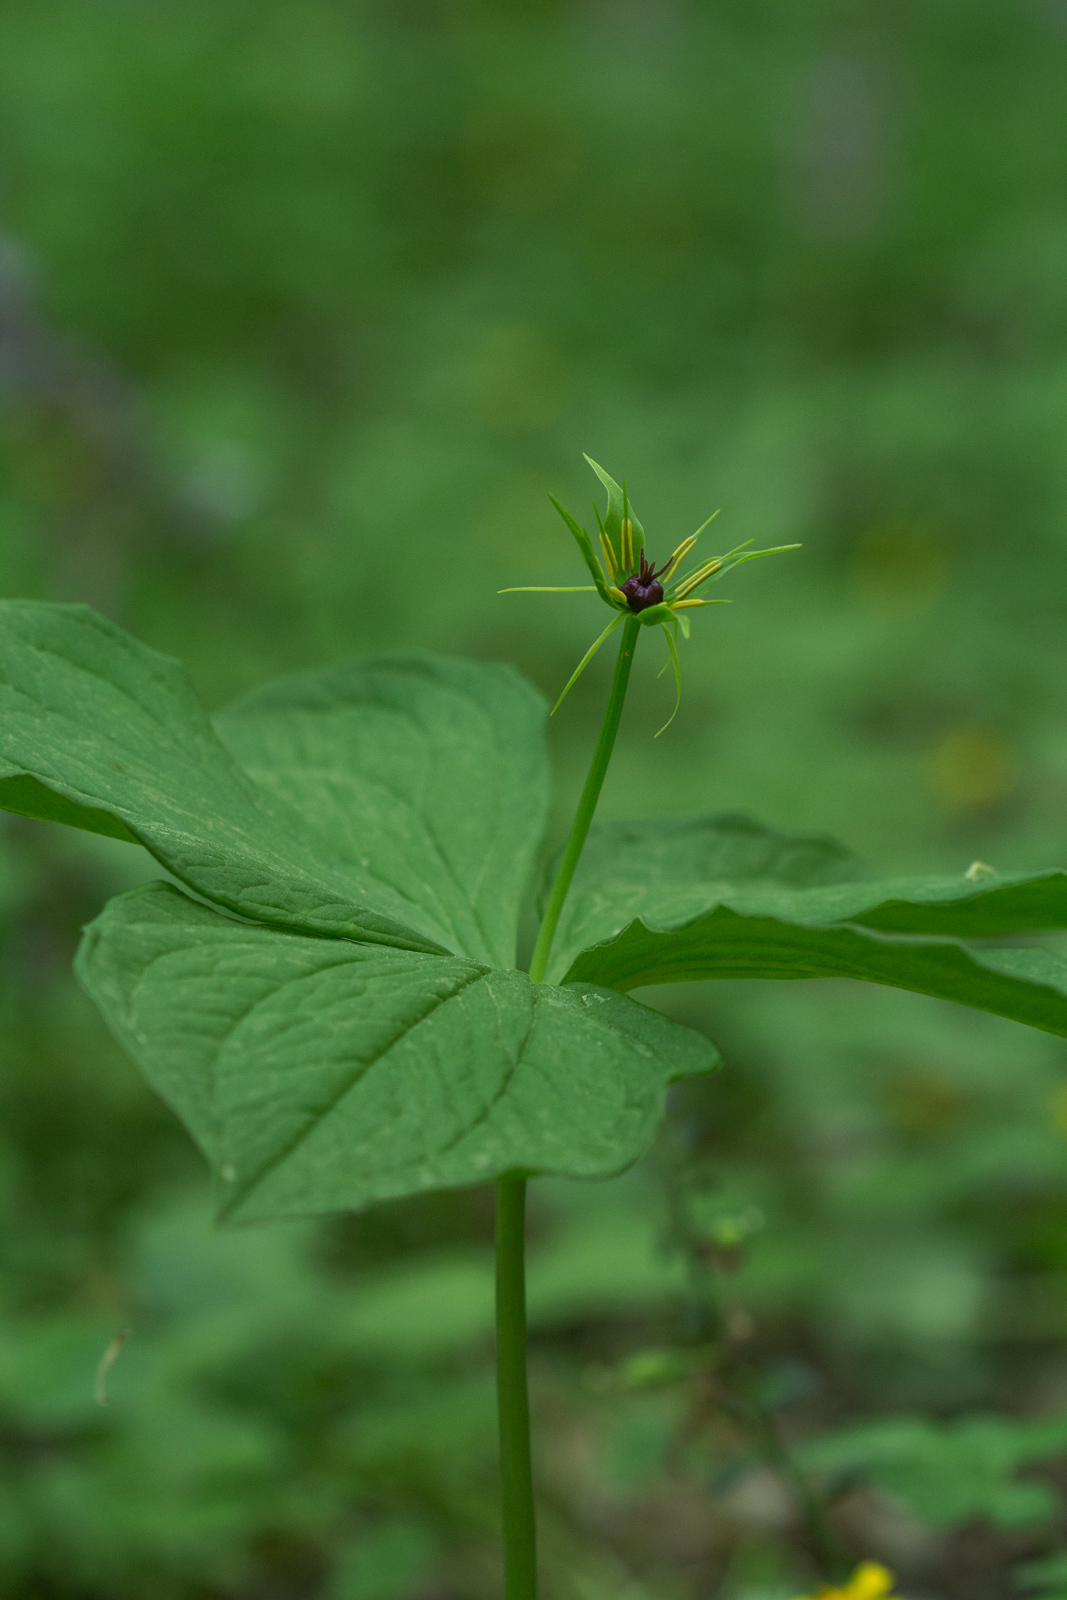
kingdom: Plantae
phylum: Tracheophyta
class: Liliopsida
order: Liliales
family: Melanthiaceae
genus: Paris
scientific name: Paris quadrifolia
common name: Herb-paris
